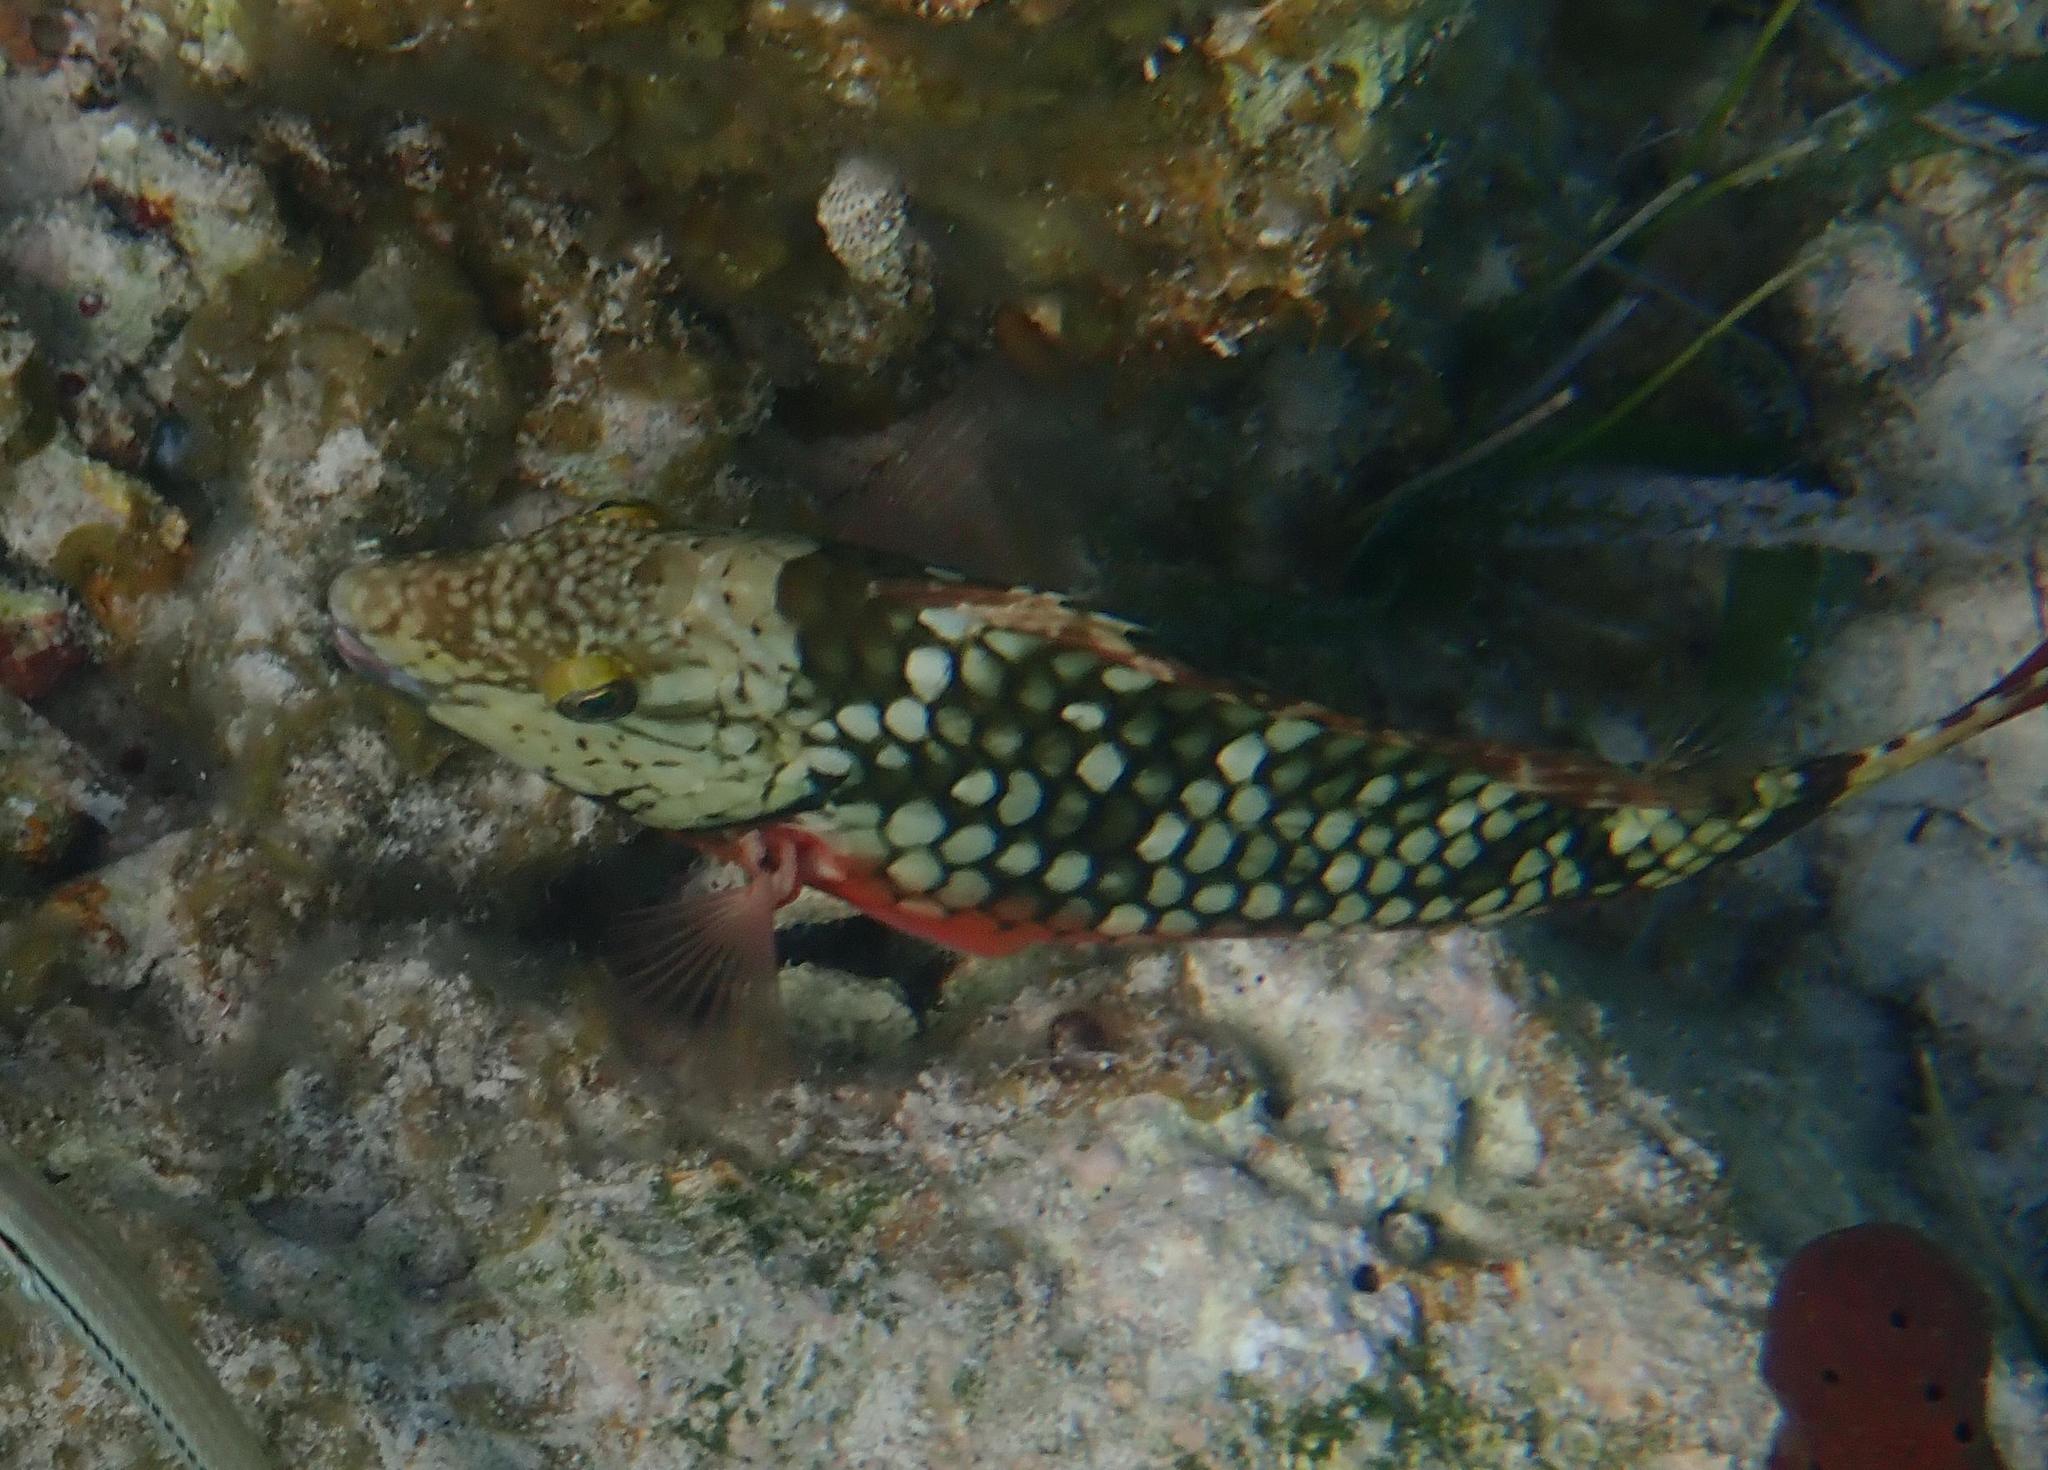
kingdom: Animalia
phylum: Chordata
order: Perciformes
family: Scaridae
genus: Sparisoma
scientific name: Sparisoma viride
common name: Stoplight parrotfish
